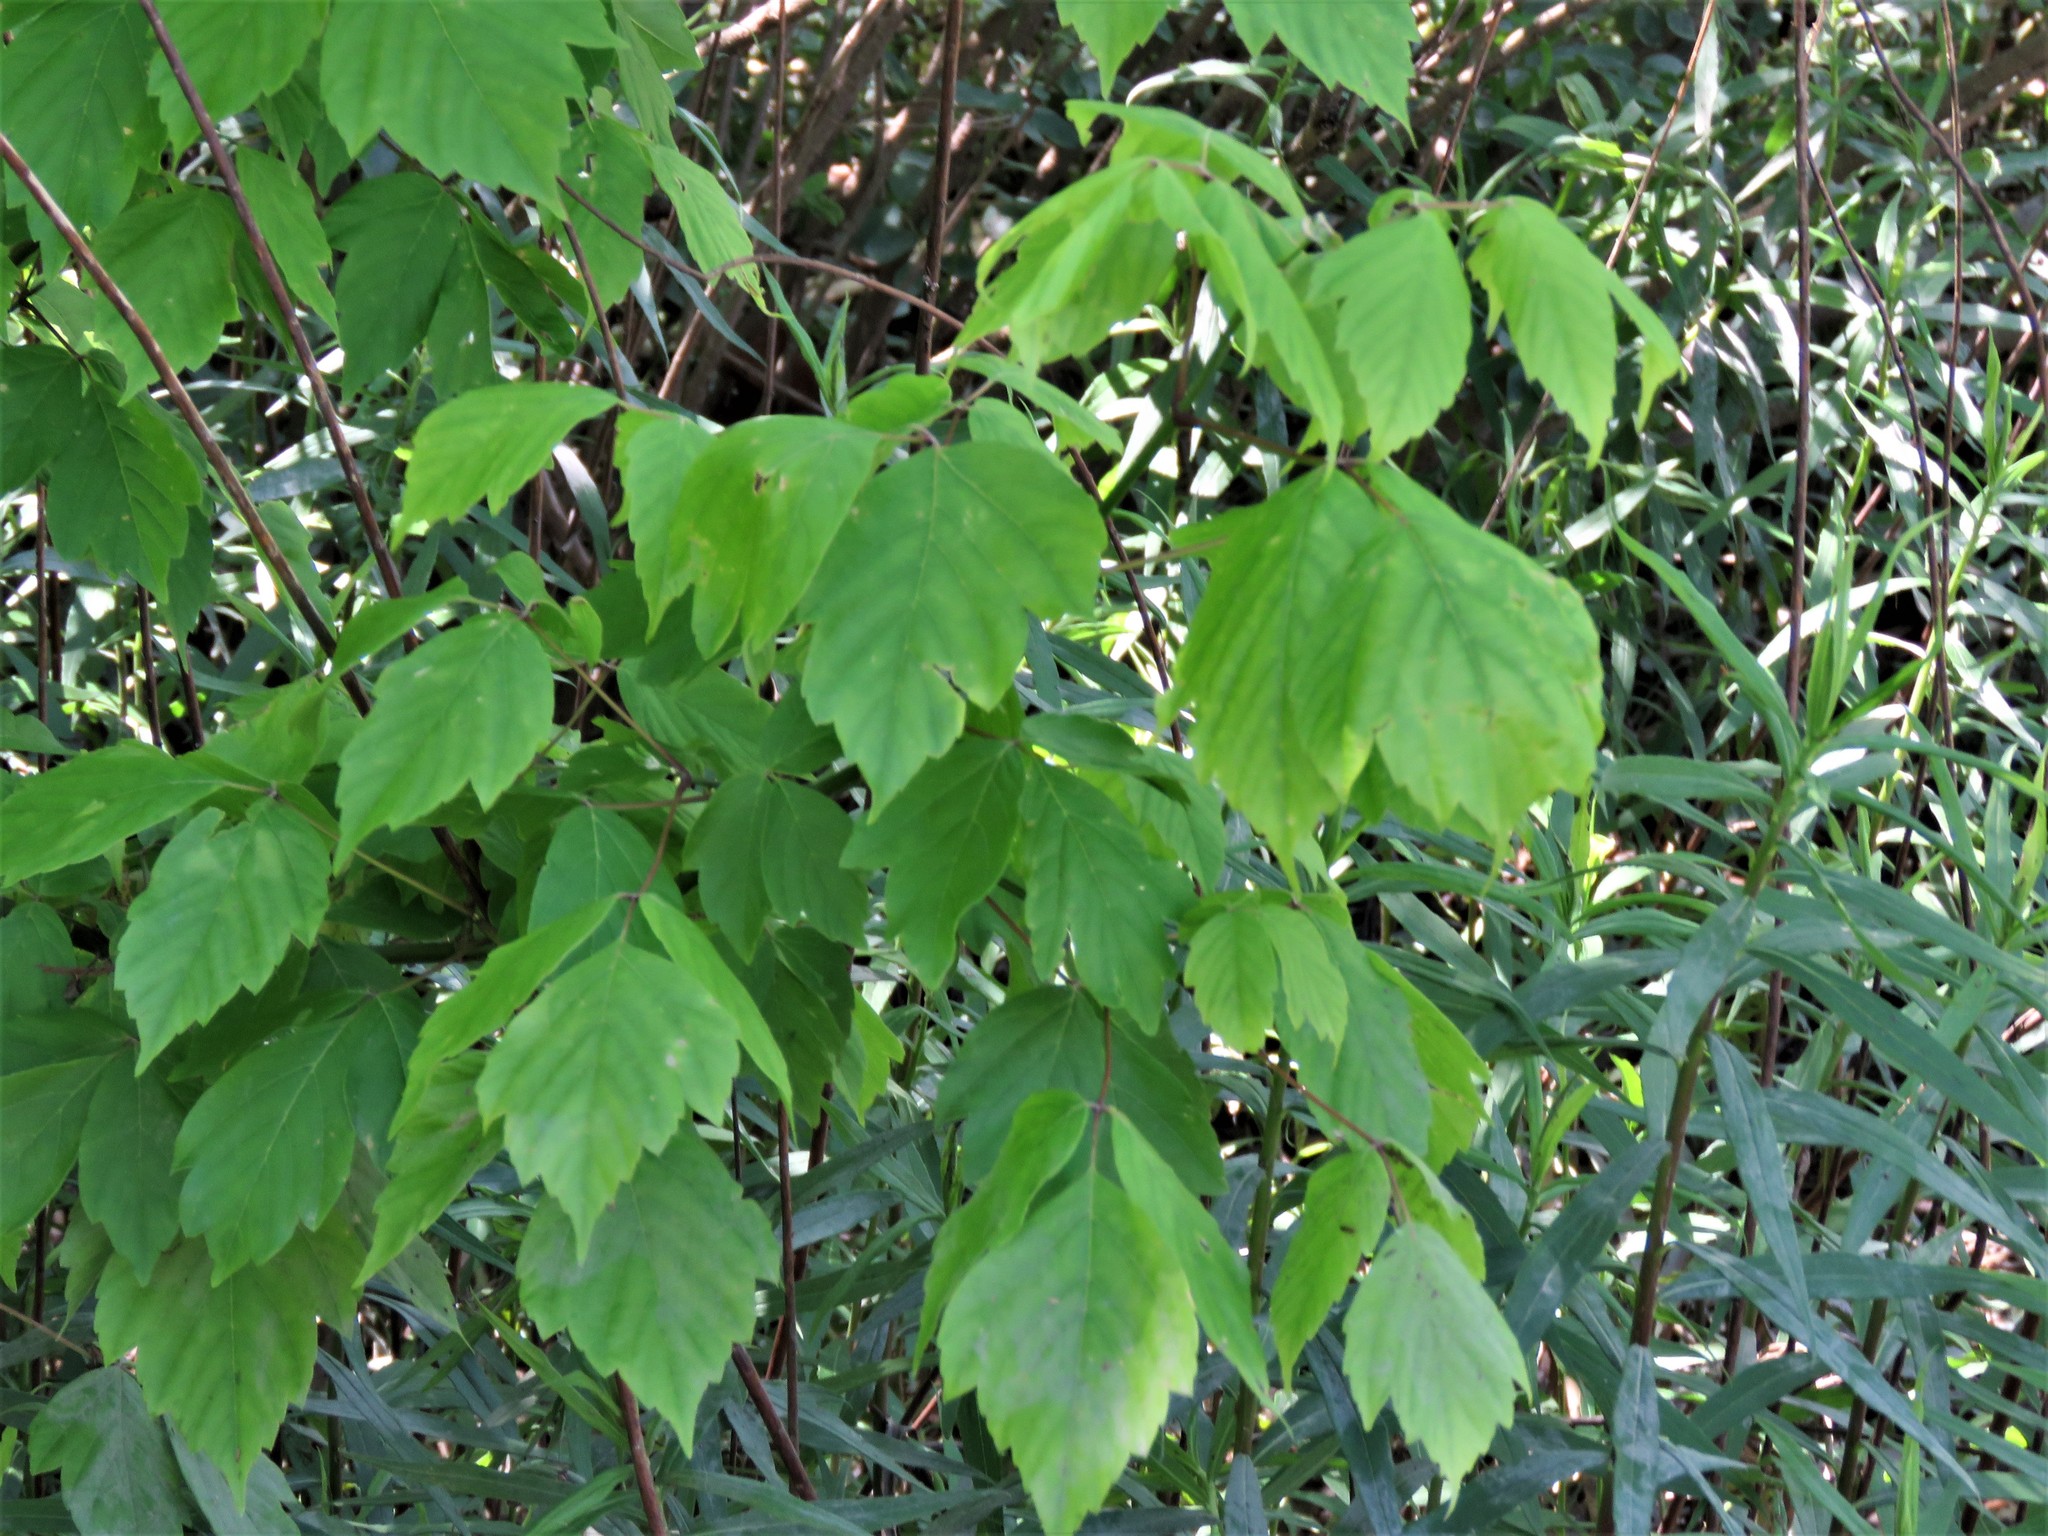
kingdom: Plantae
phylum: Tracheophyta
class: Magnoliopsida
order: Sapindales
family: Sapindaceae
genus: Acer
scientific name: Acer negundo
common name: Ashleaf maple
